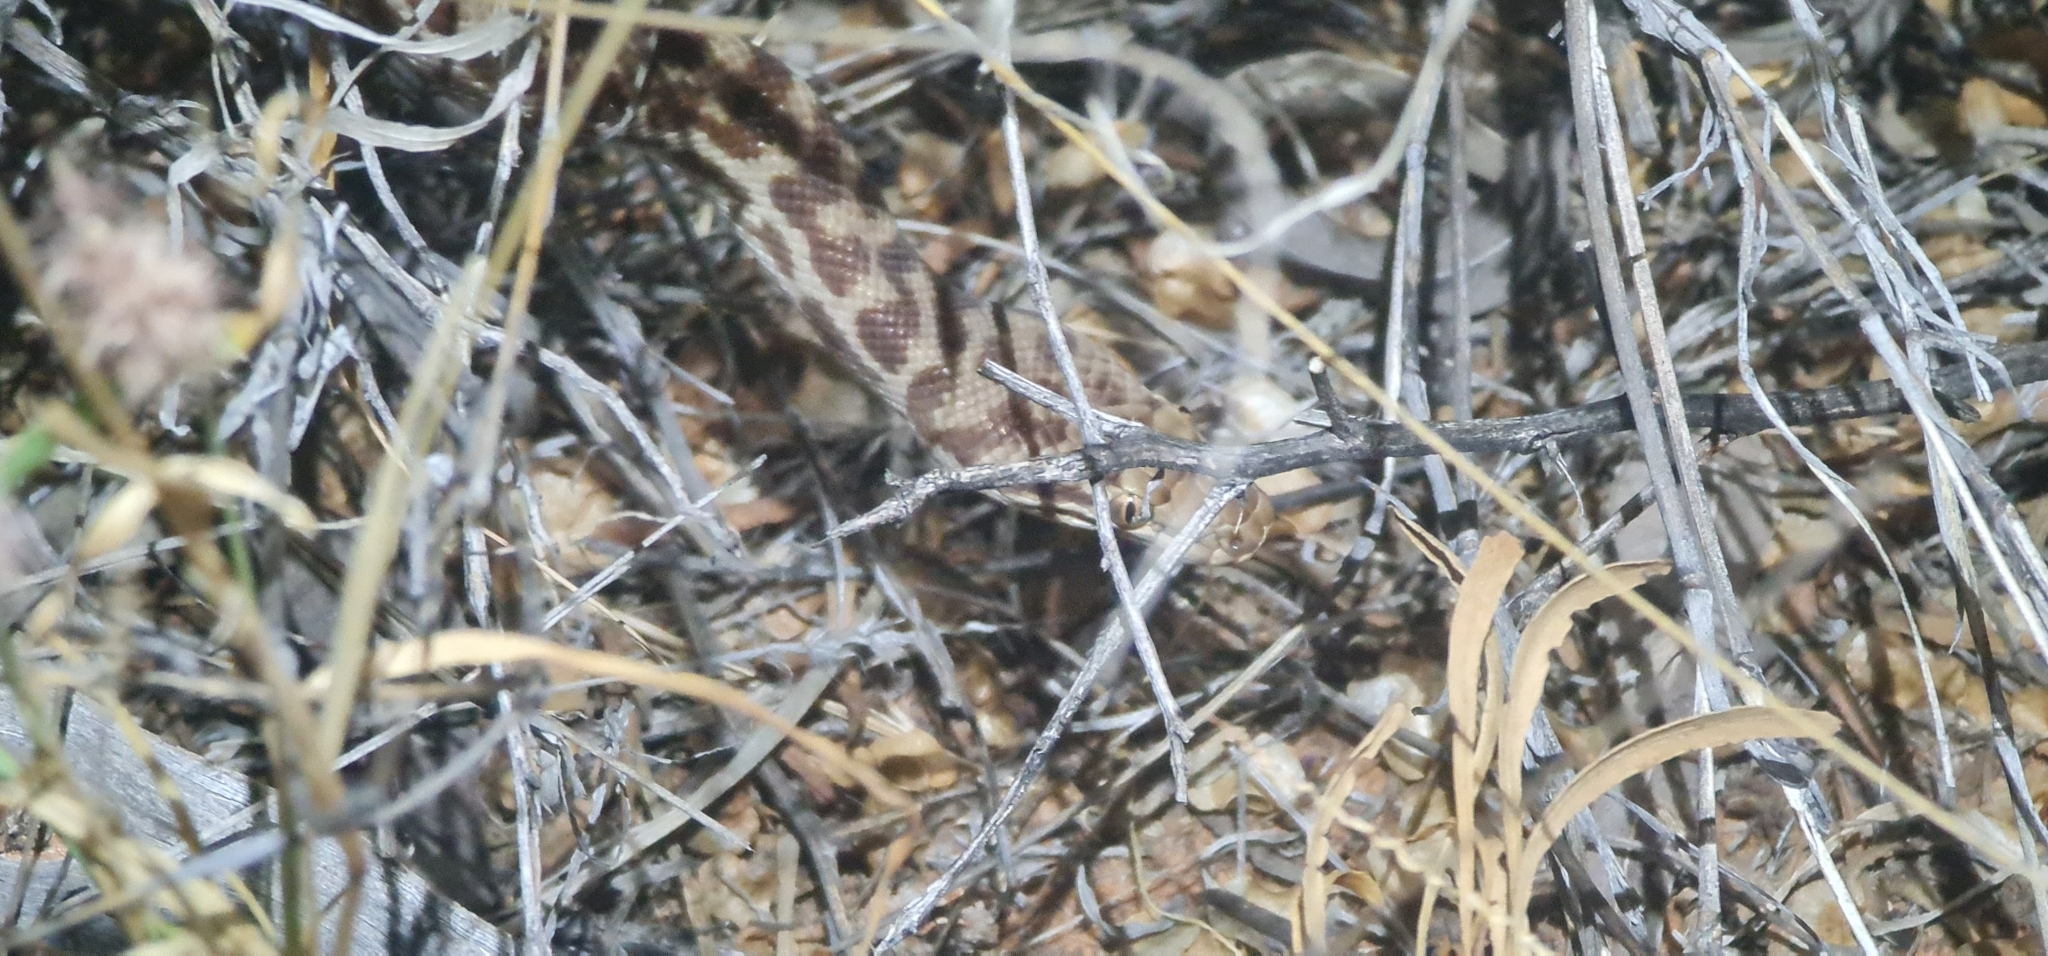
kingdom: Animalia
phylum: Chordata
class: Squamata
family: Pythonidae
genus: Antaresia
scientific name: Antaresia childreni
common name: Children's python
